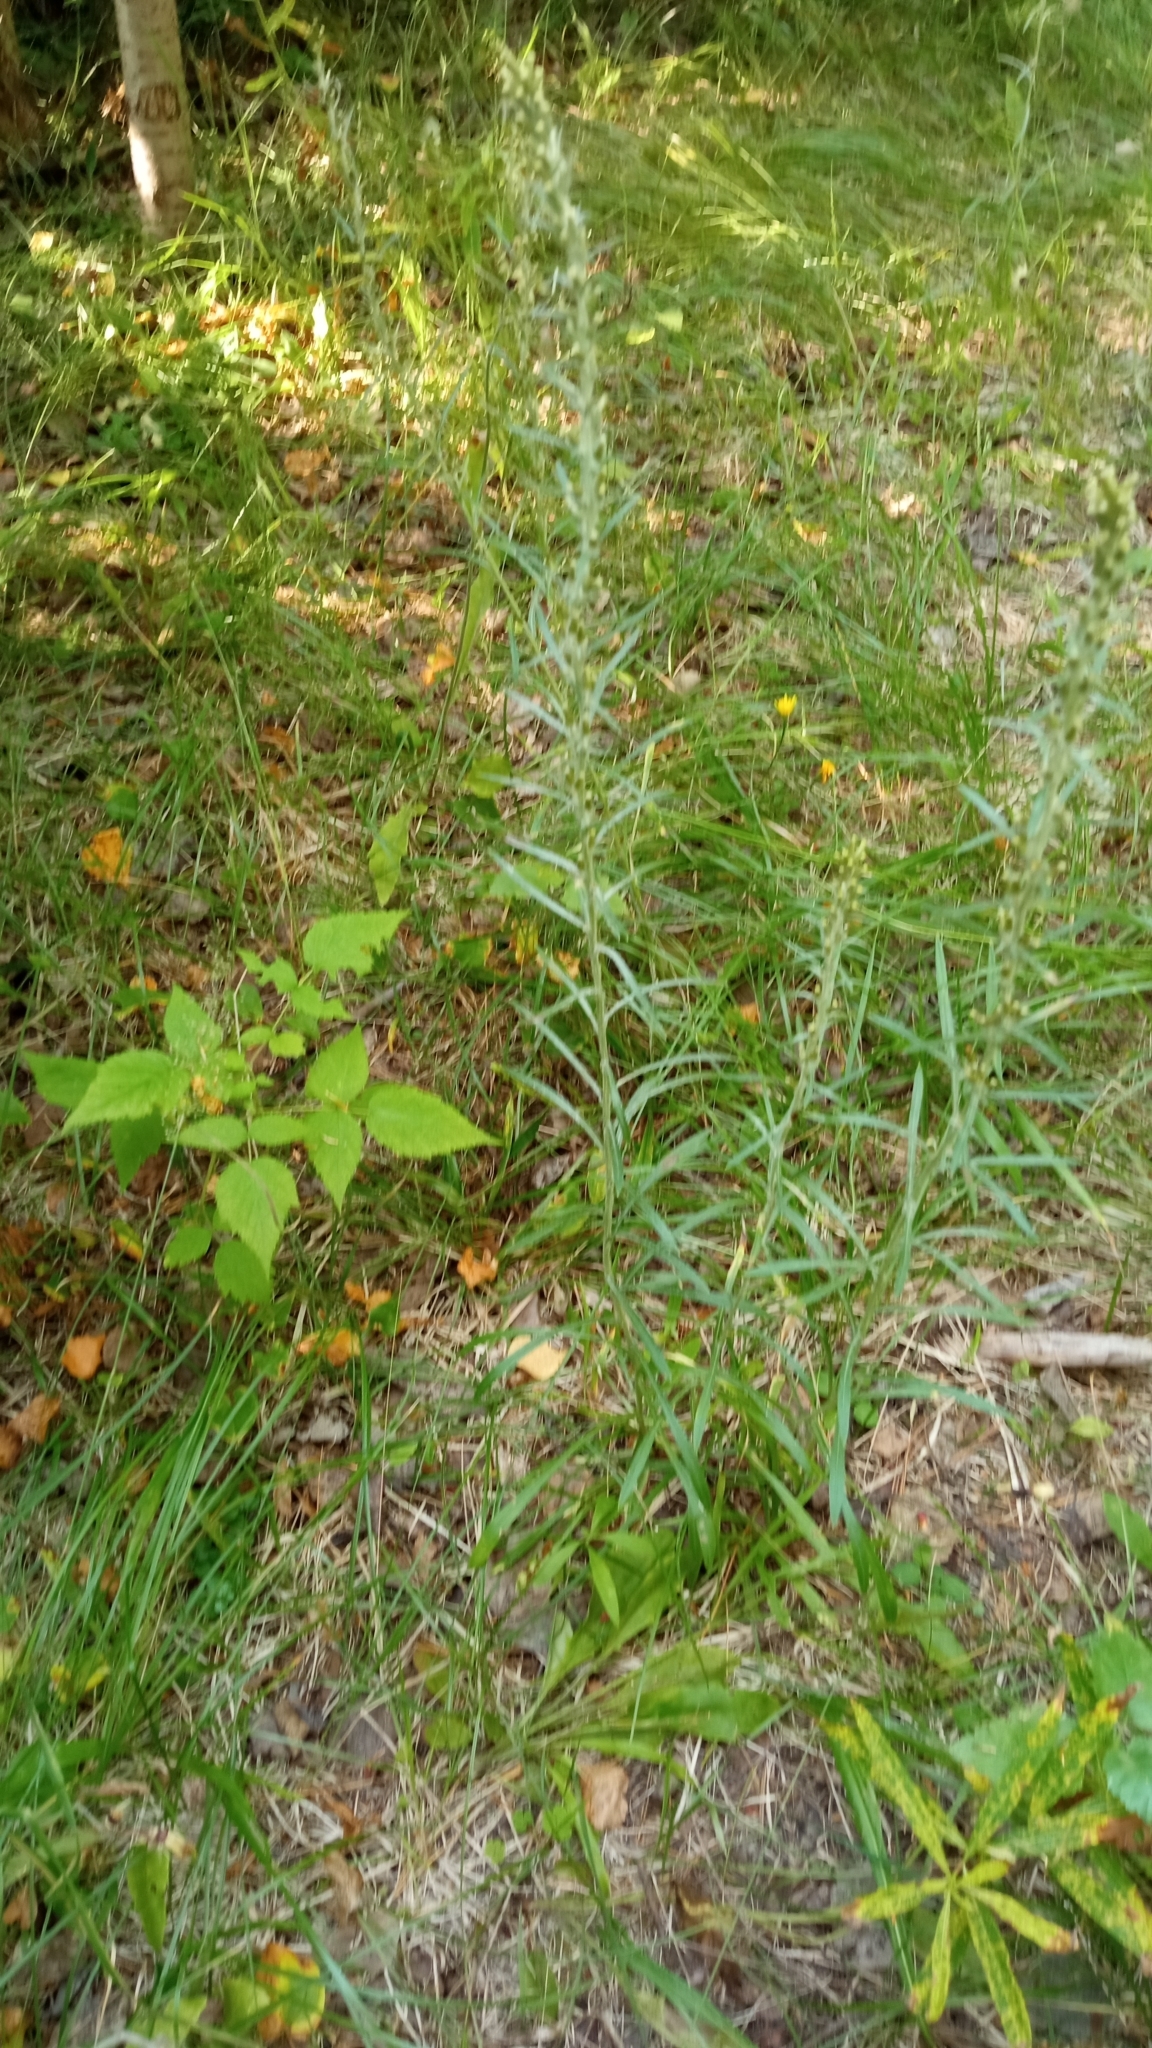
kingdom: Plantae
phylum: Tracheophyta
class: Magnoliopsida
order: Asterales
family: Asteraceae
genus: Omalotheca
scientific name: Omalotheca sylvatica
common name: Heath cudweed
